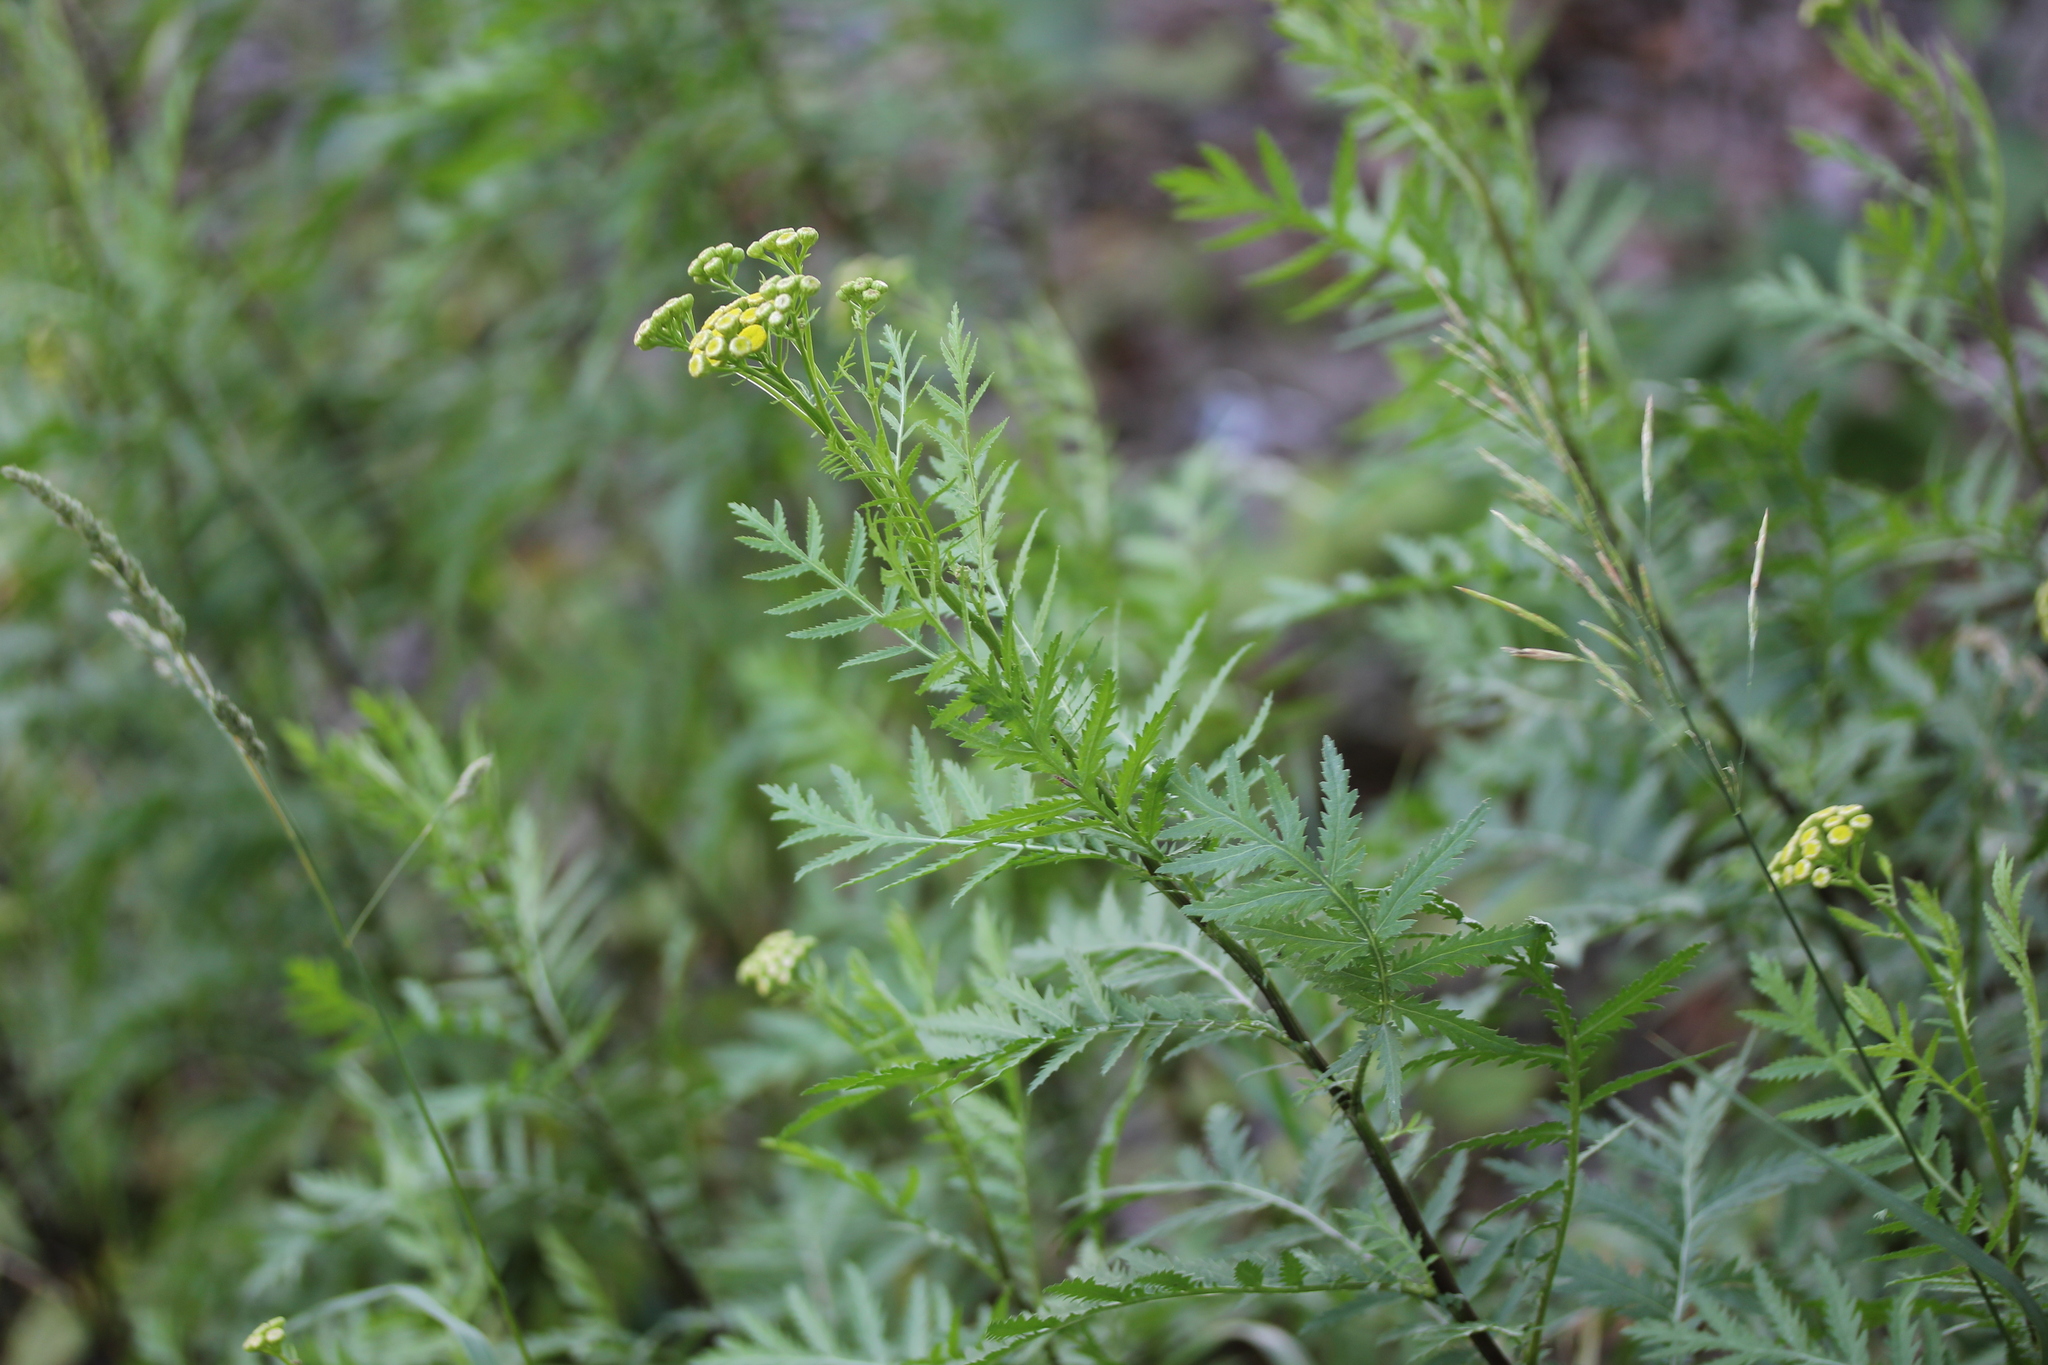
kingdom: Plantae
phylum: Tracheophyta
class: Magnoliopsida
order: Asterales
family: Asteraceae
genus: Tanacetum
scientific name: Tanacetum vulgare
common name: Common tansy
